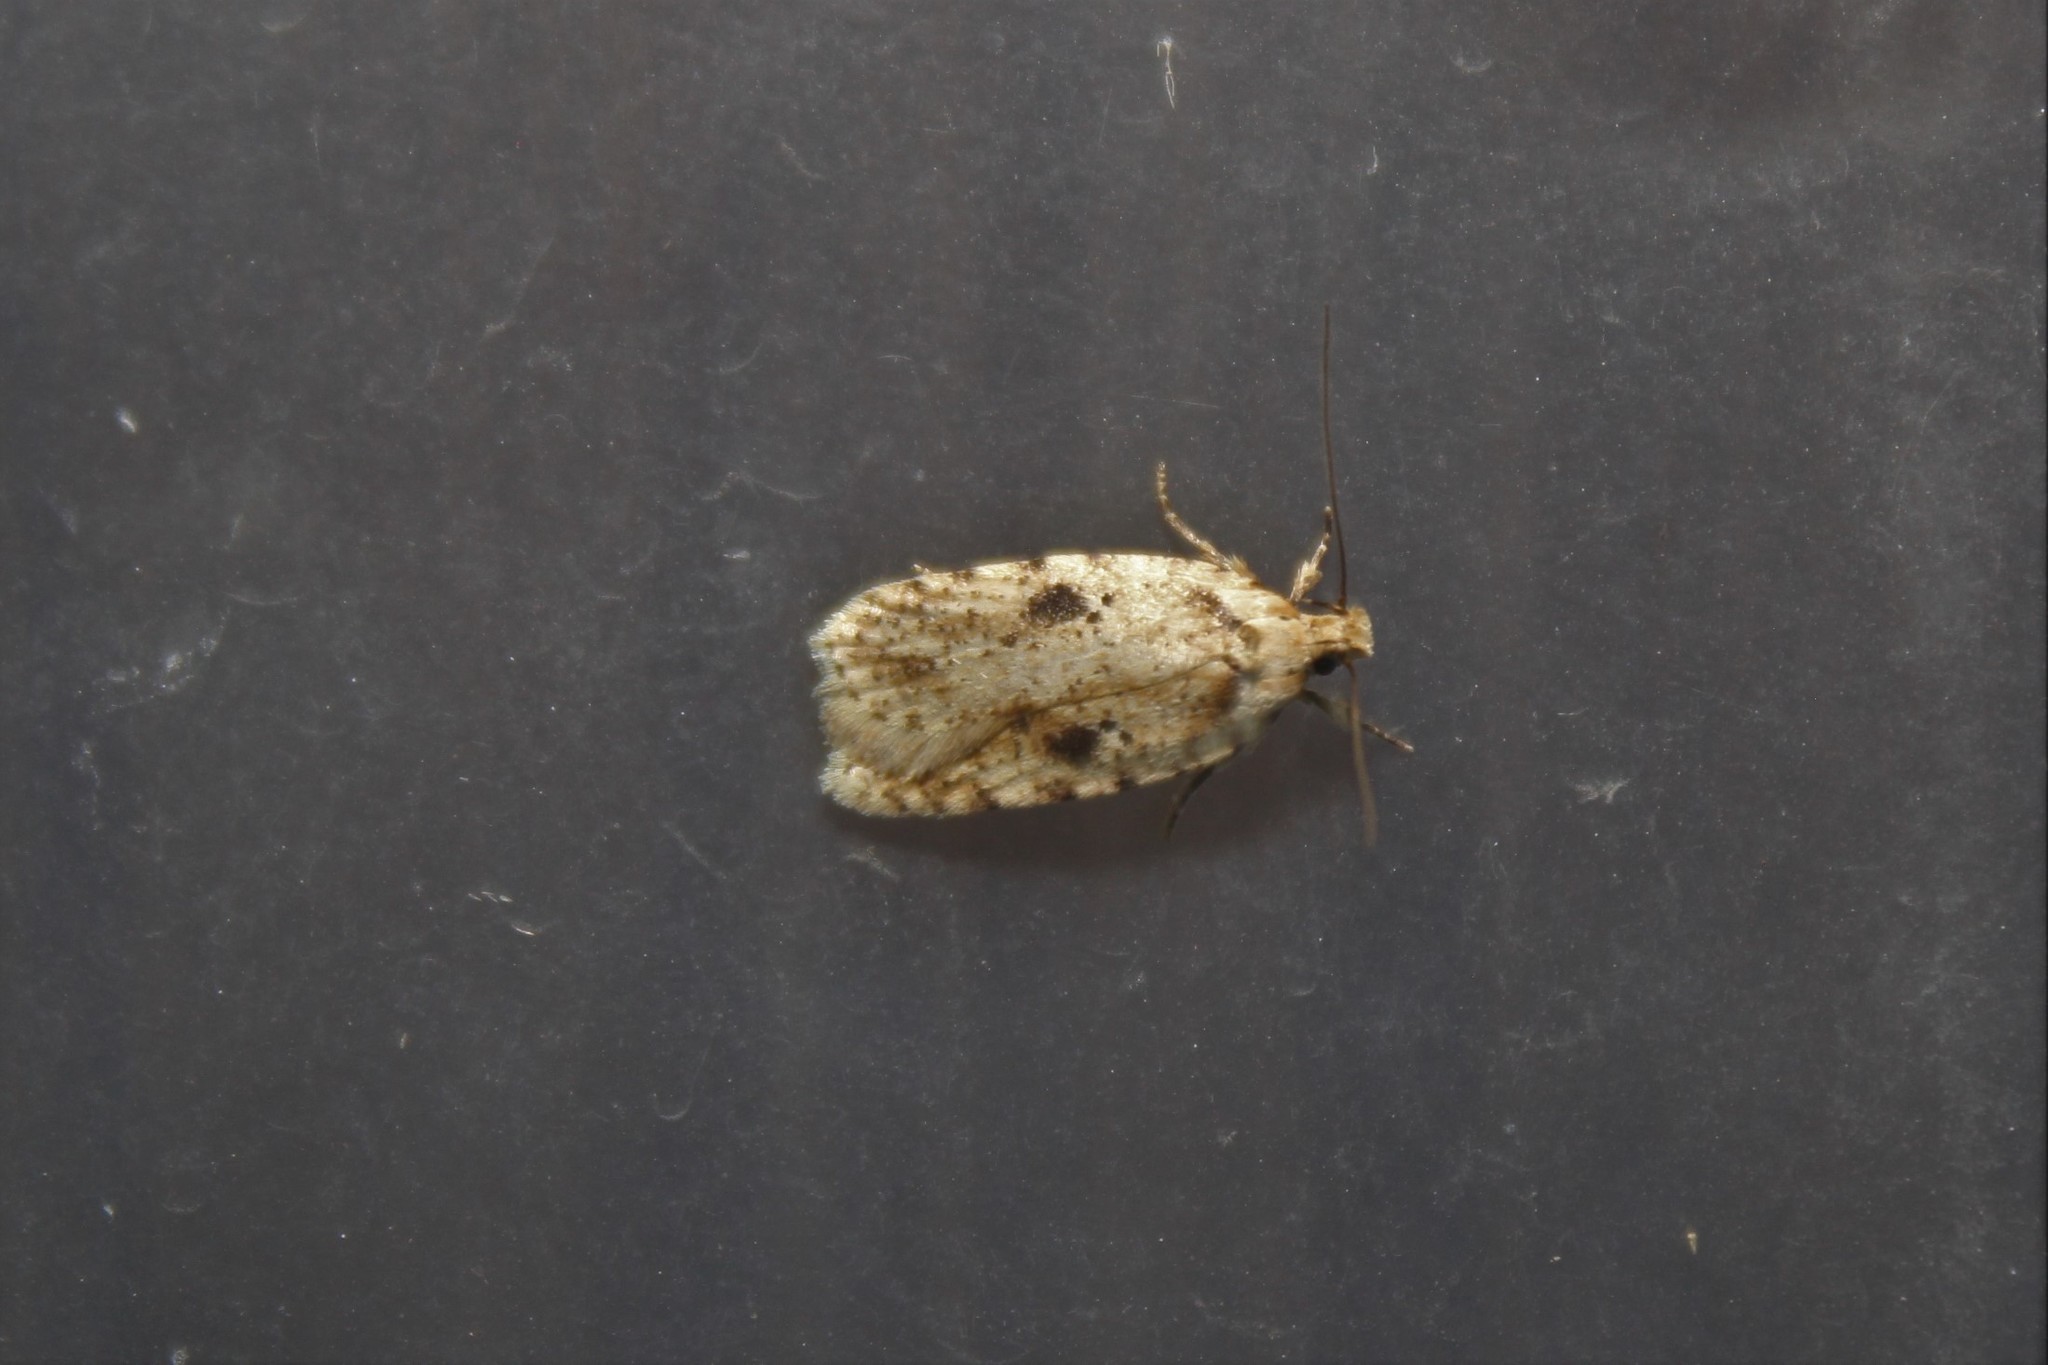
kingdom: Animalia
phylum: Arthropoda
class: Insecta
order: Lepidoptera
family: Depressariidae
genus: Agonopterix
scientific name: Agonopterix canadensis
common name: Canadian agonopterix moth
